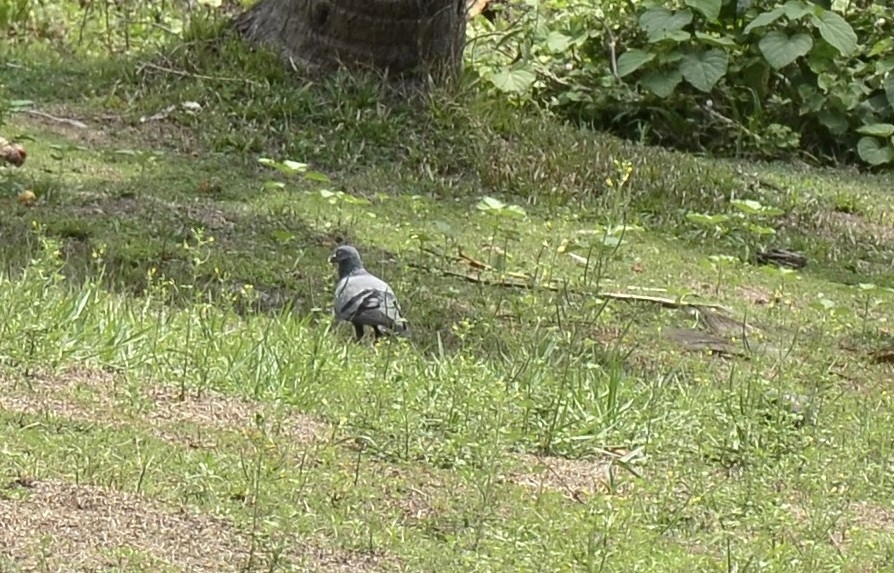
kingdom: Animalia
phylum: Chordata
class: Aves
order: Columbiformes
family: Columbidae
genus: Columba
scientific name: Columba livia
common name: Rock pigeon
